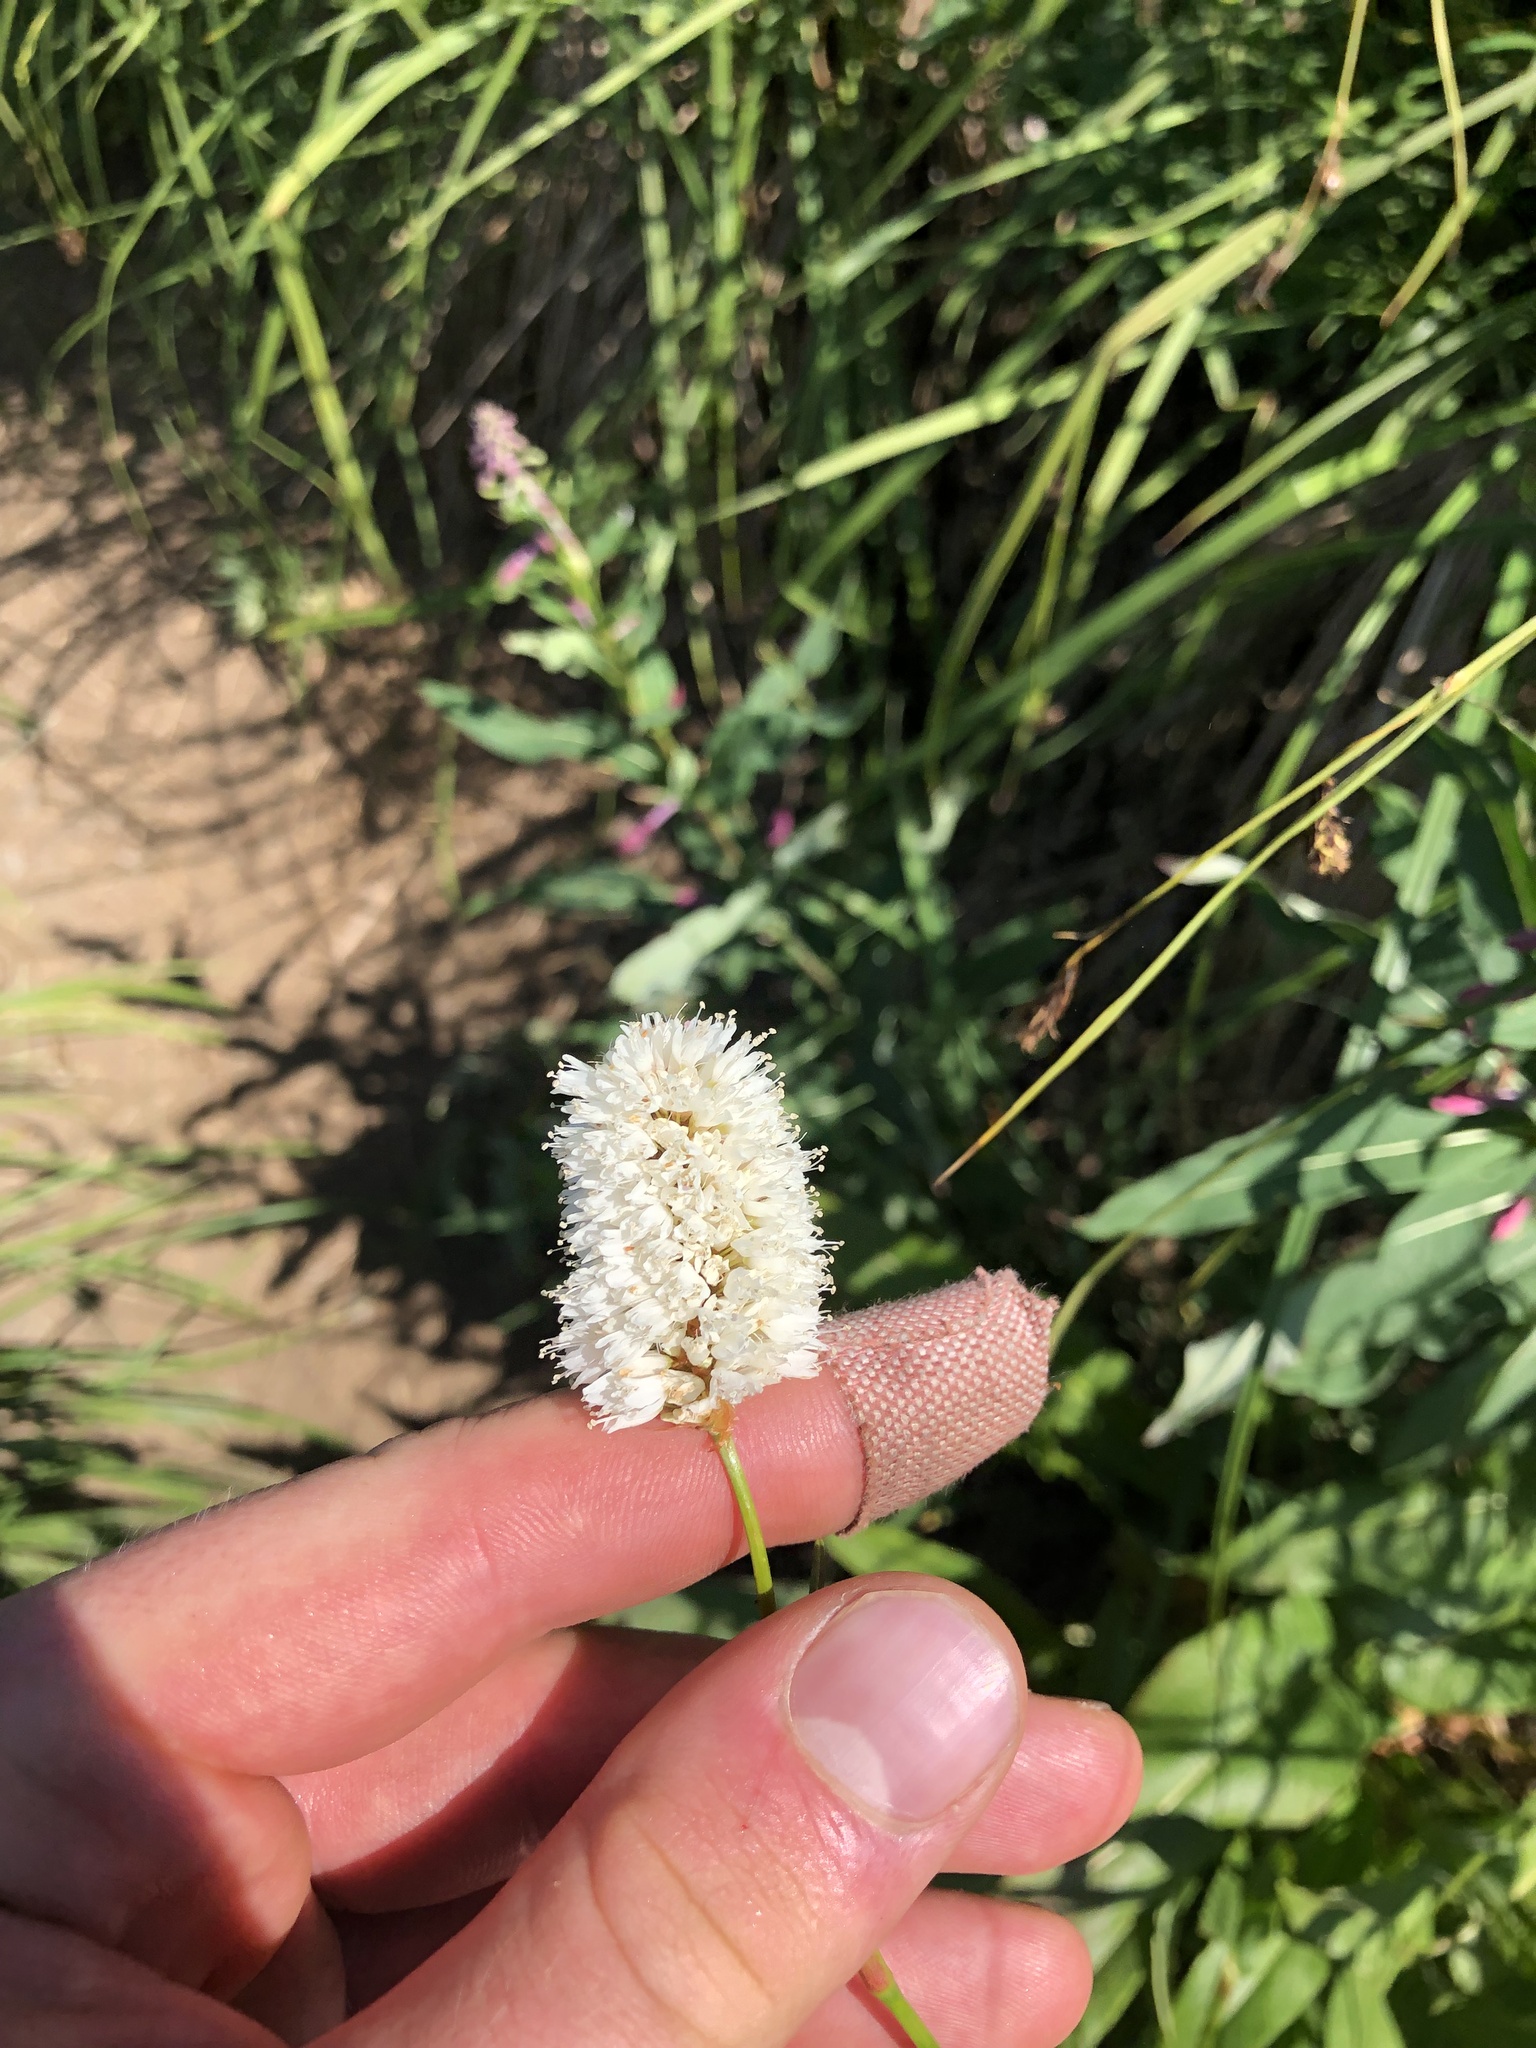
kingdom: Plantae
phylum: Tracheophyta
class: Magnoliopsida
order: Caryophyllales
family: Polygonaceae
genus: Bistorta
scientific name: Bistorta bistortoides
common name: American bistort
